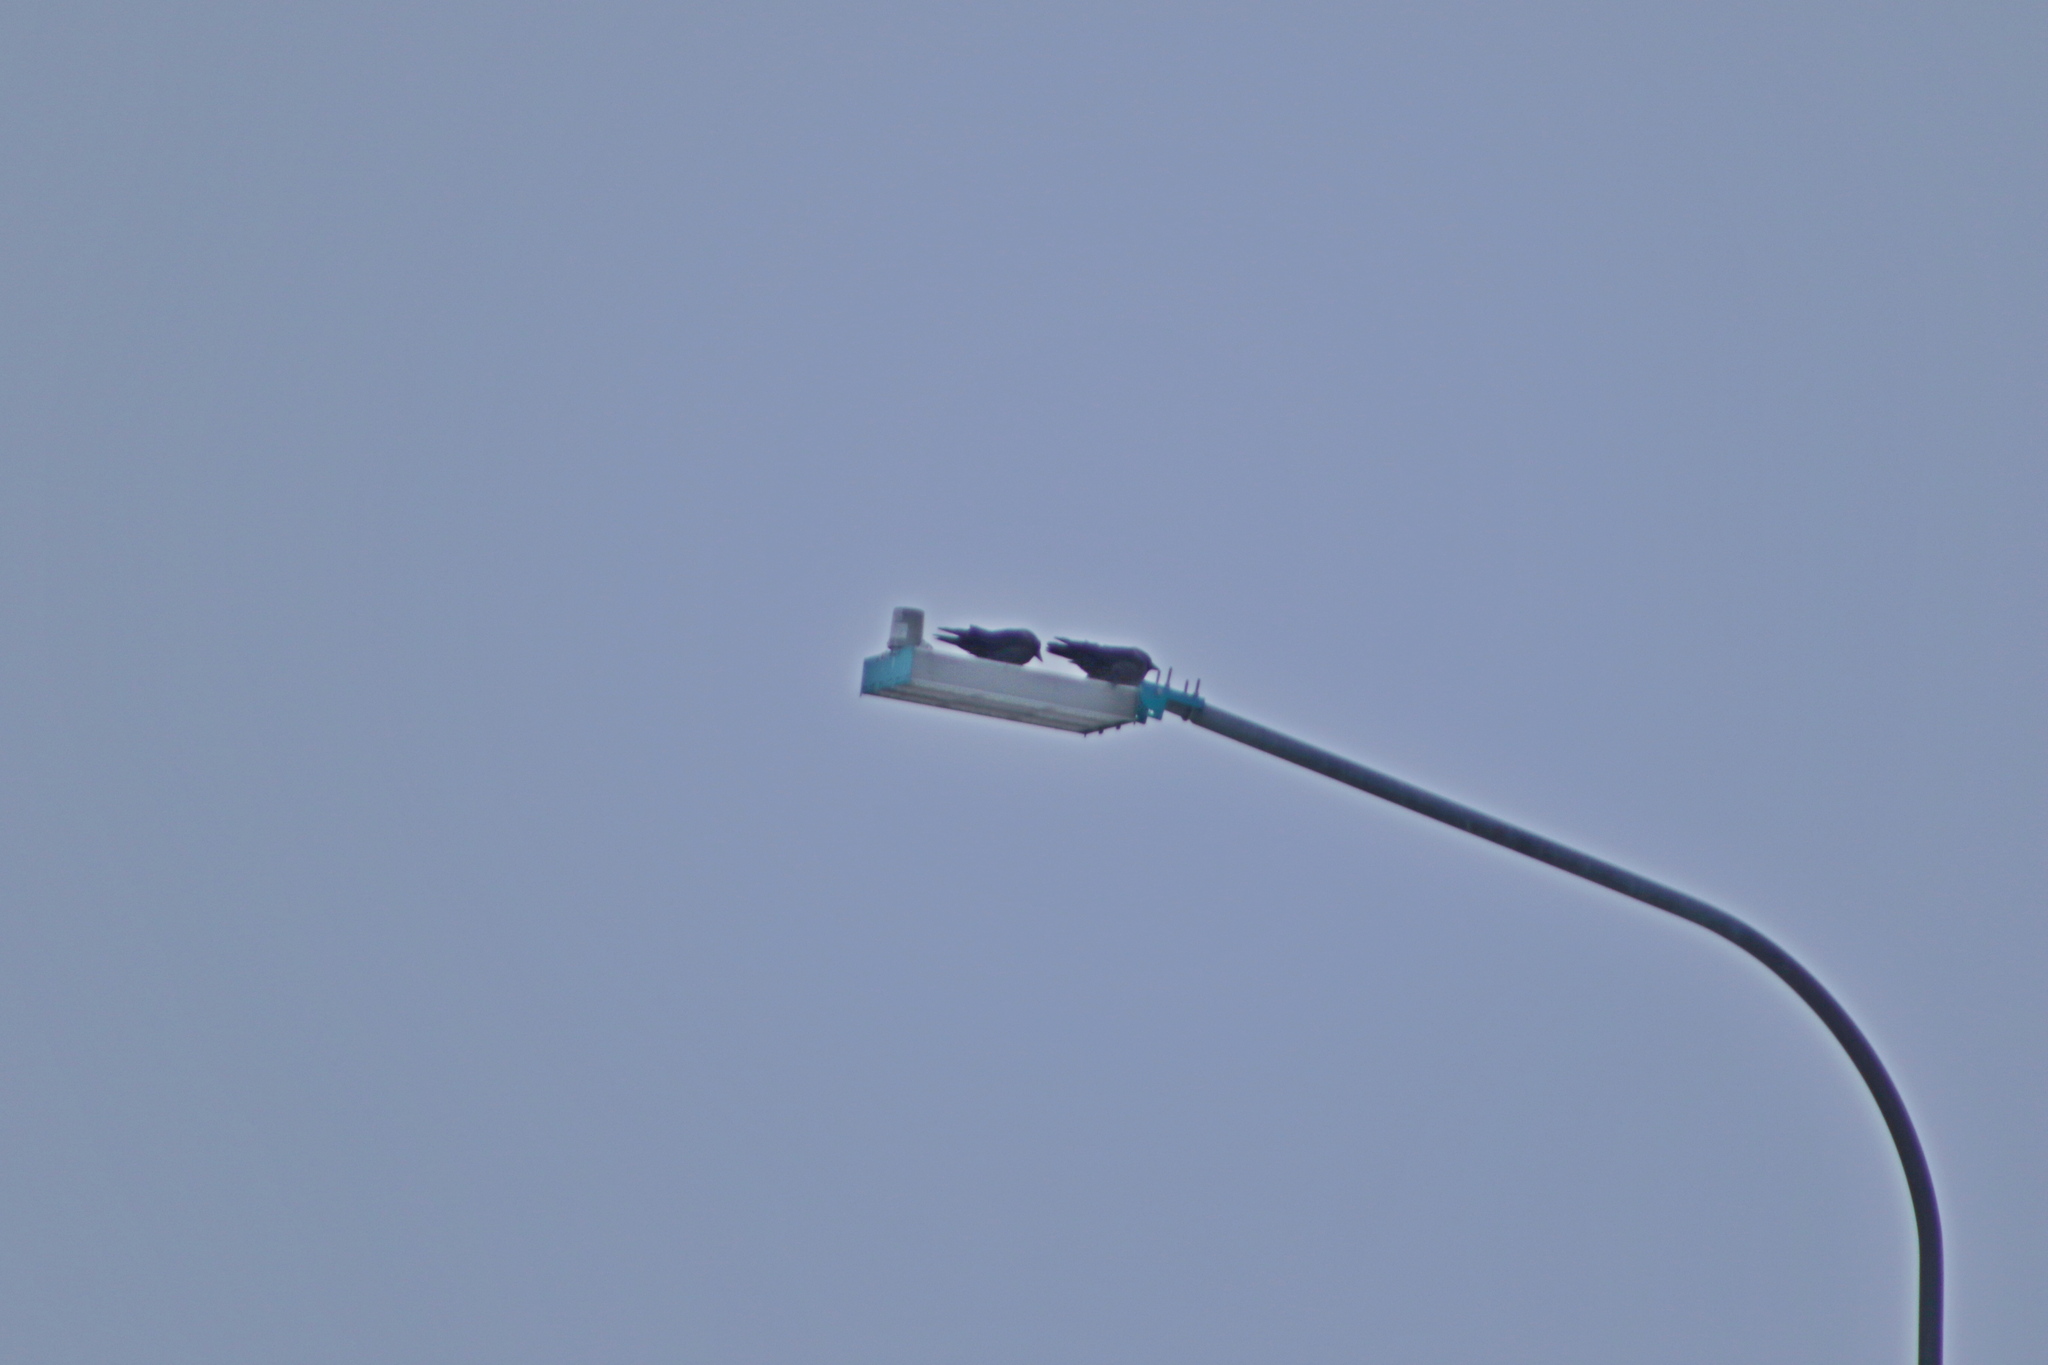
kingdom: Animalia
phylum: Chordata
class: Aves
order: Passeriformes
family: Corvidae
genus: Coloeus
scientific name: Coloeus monedula
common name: Western jackdaw
